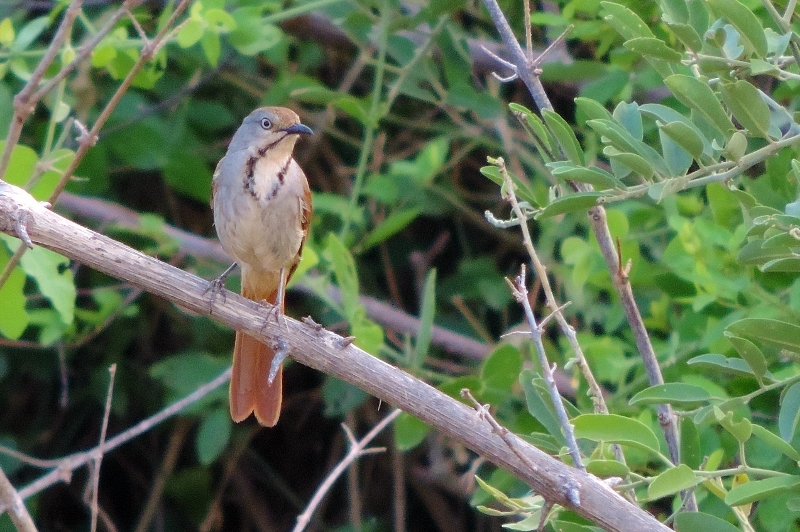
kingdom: Animalia
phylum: Chordata
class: Aves
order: Passeriformes
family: Muscicapidae
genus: Cichladusa
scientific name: Cichladusa arquata
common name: Collared palm thrush
